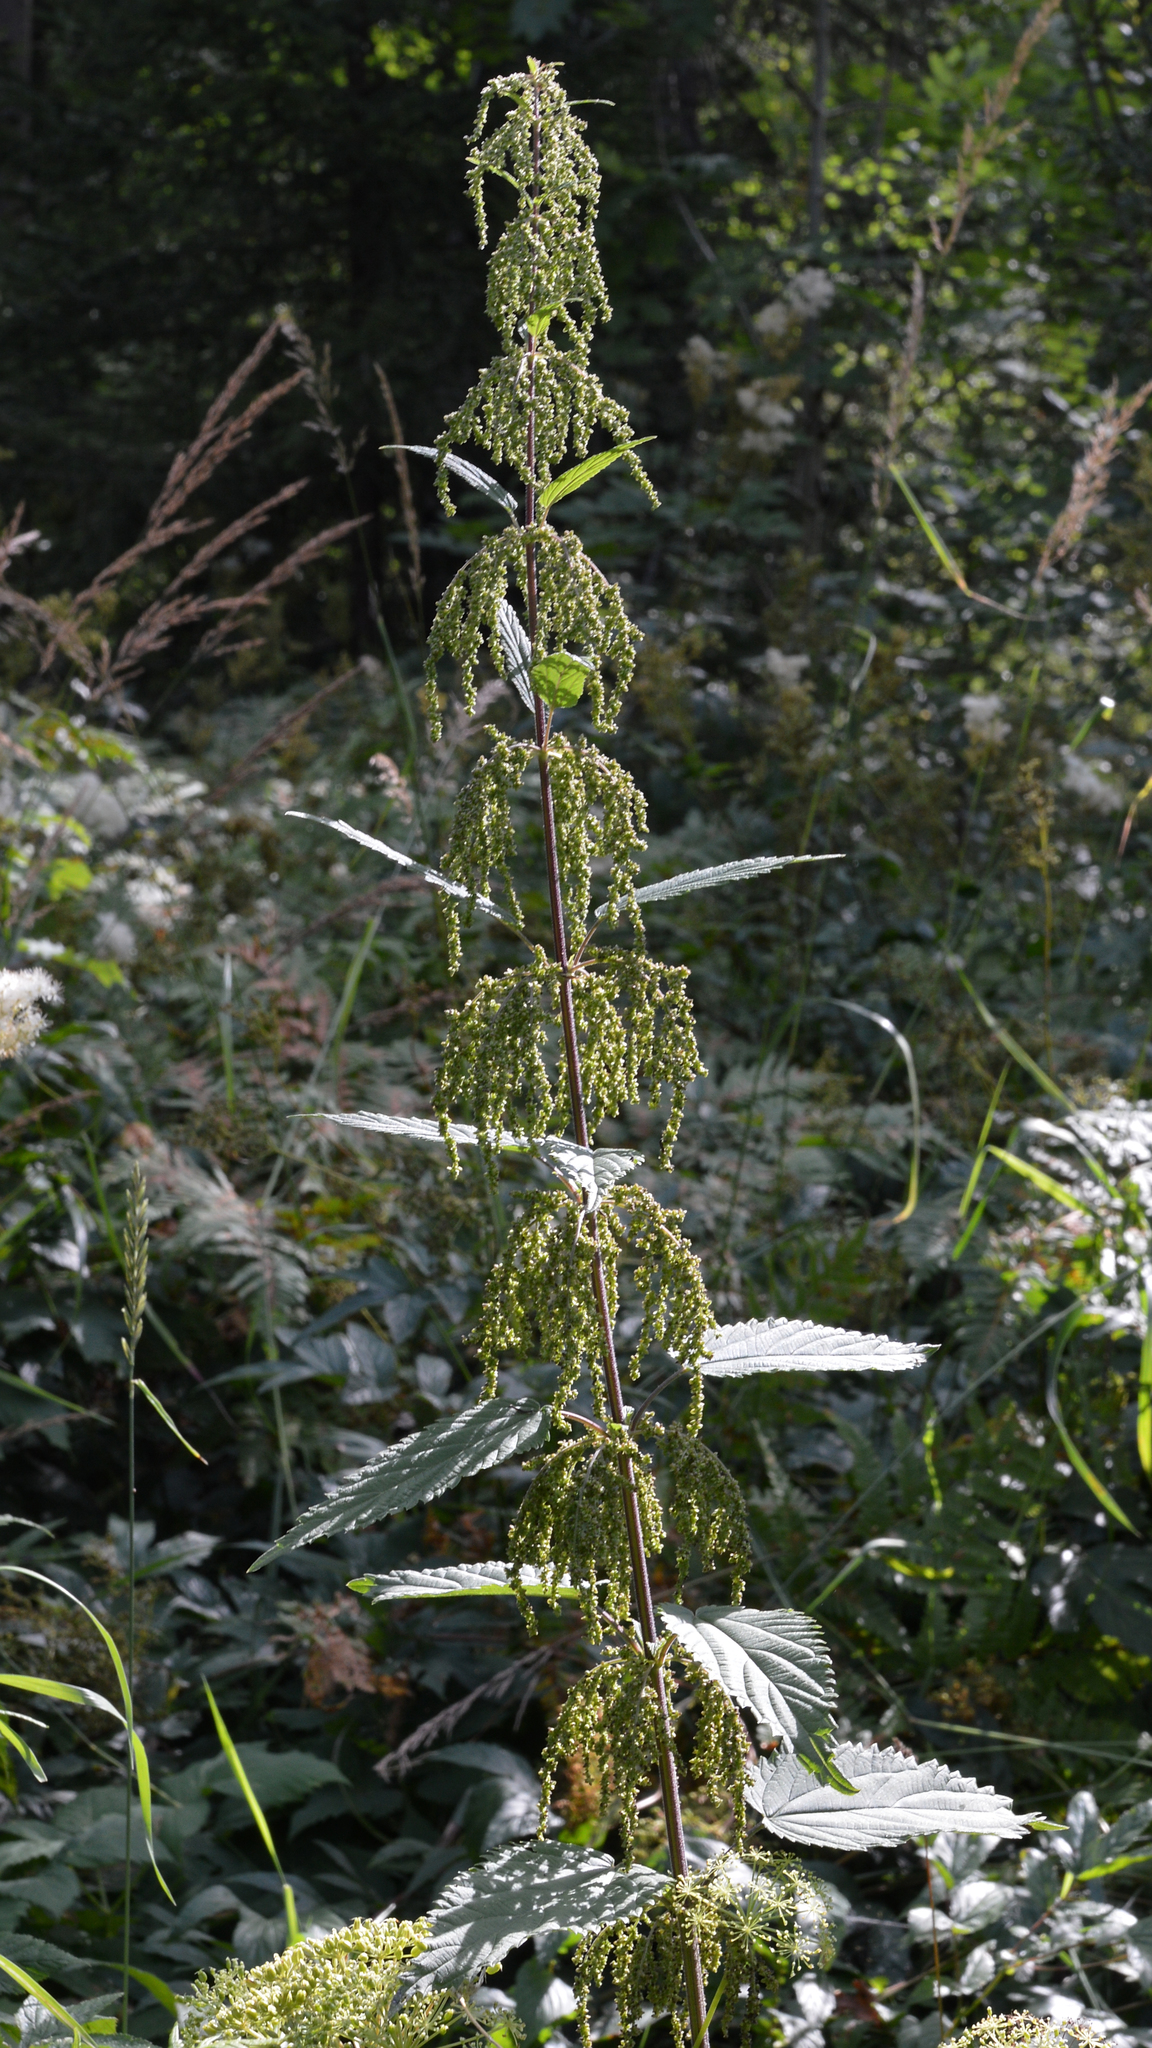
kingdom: Plantae
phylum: Tracheophyta
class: Magnoliopsida
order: Rosales
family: Urticaceae
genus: Urtica
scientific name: Urtica dioica
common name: Common nettle
